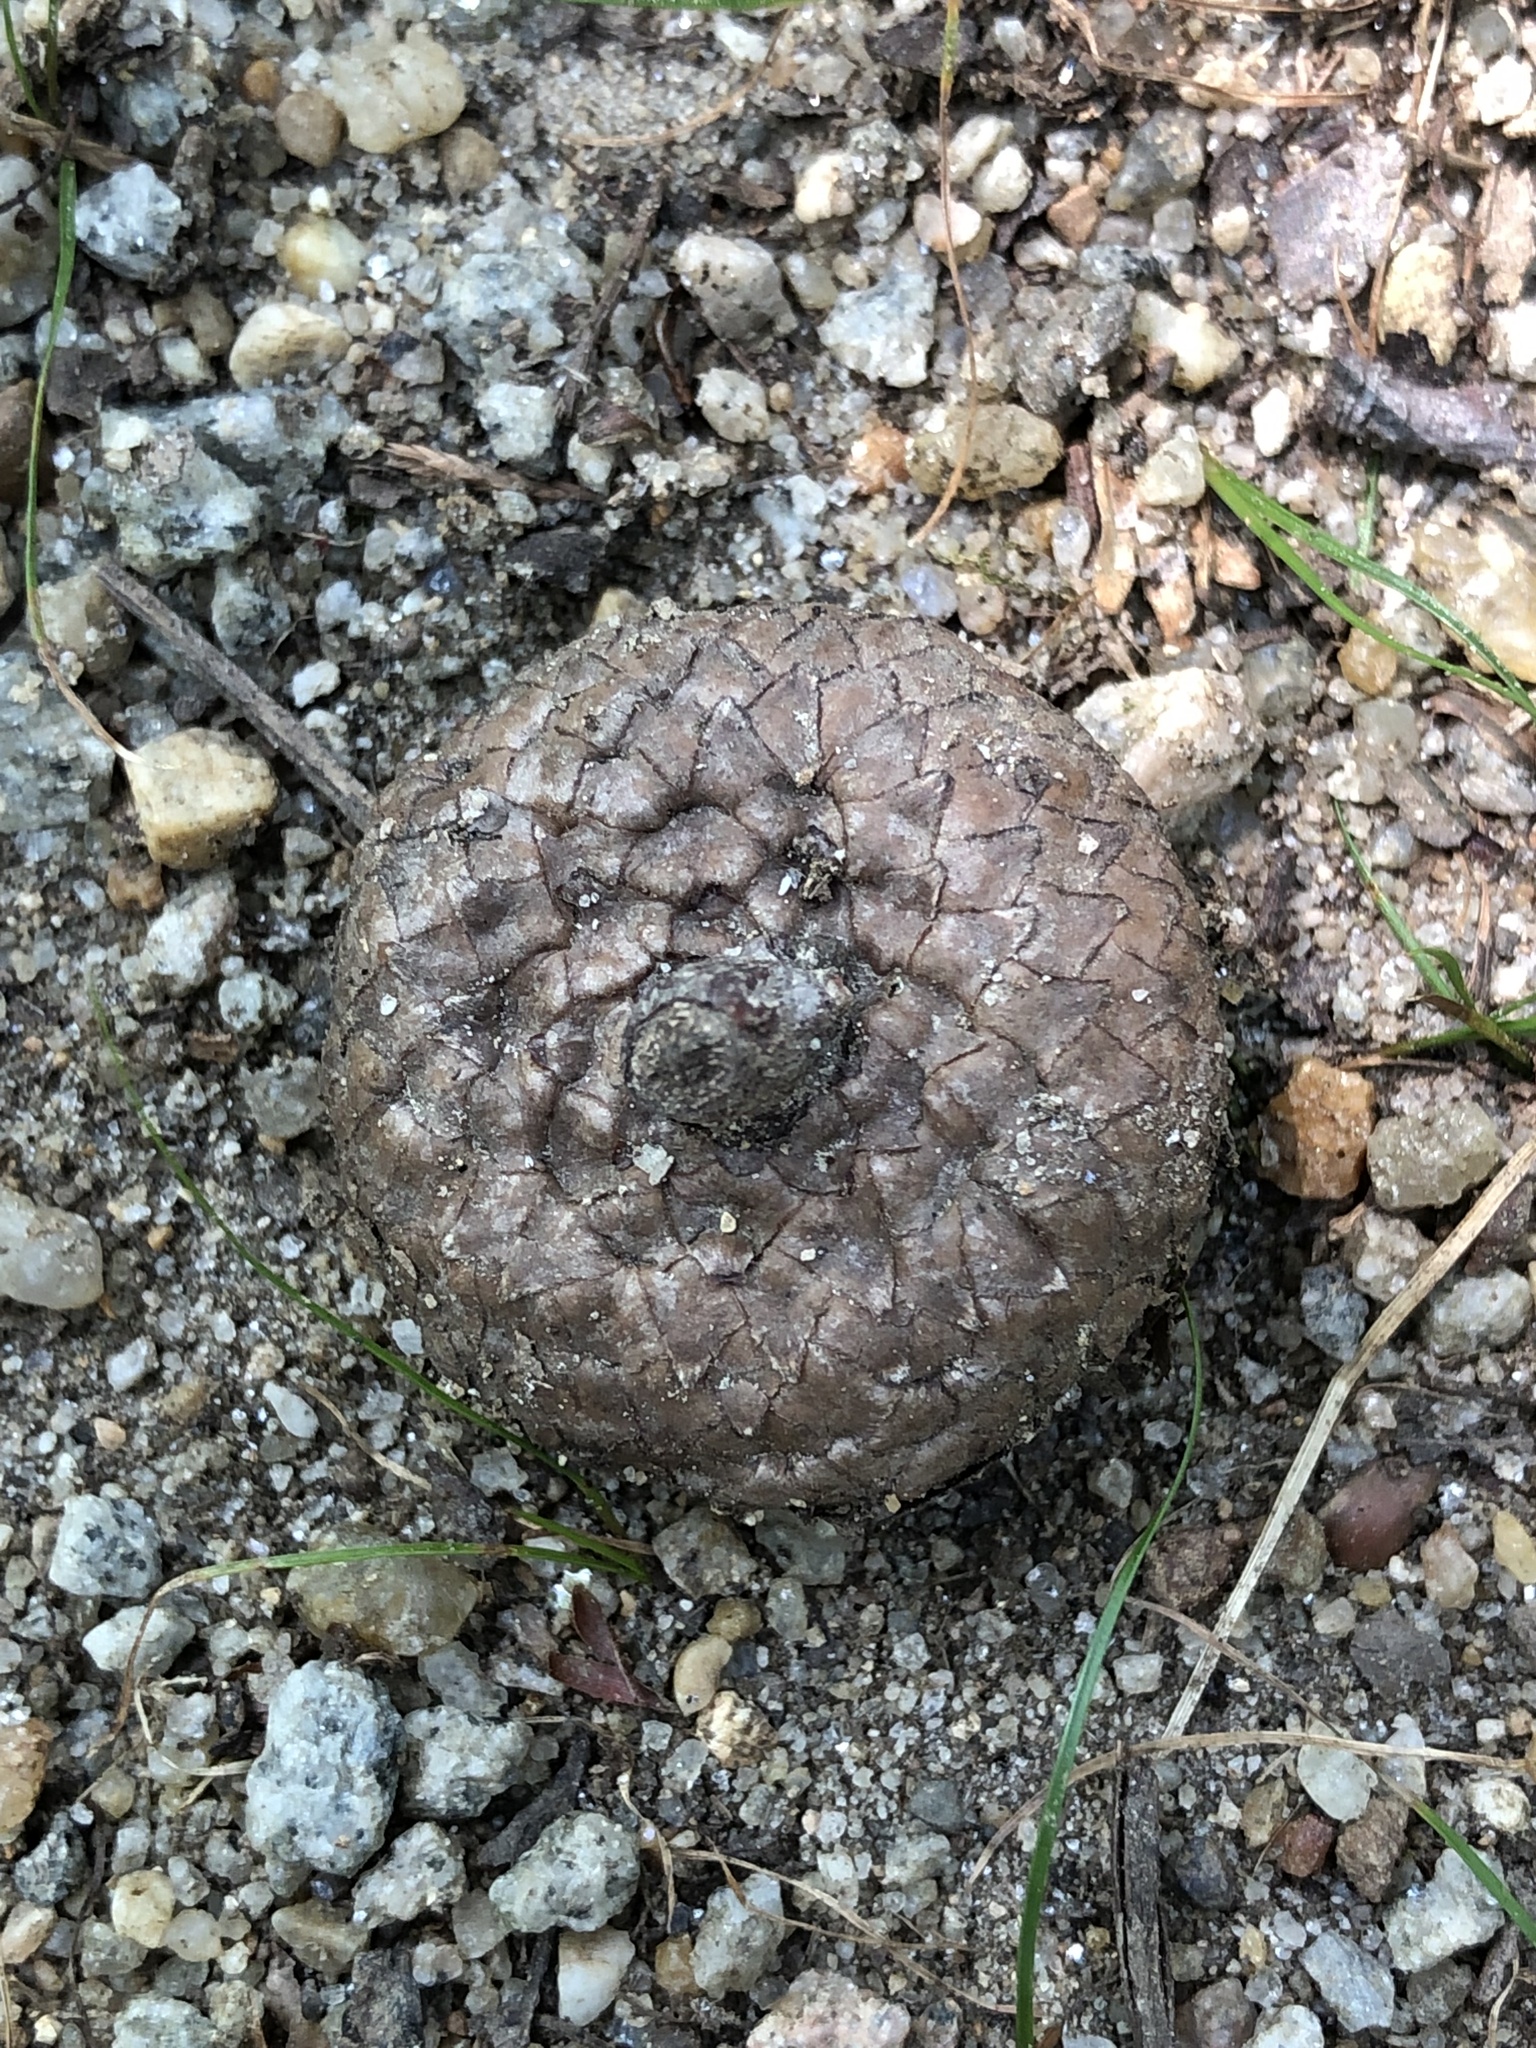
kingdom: Plantae
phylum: Tracheophyta
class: Magnoliopsida
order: Fagales
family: Fagaceae
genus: Quercus
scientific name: Quercus rubra
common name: Red oak
